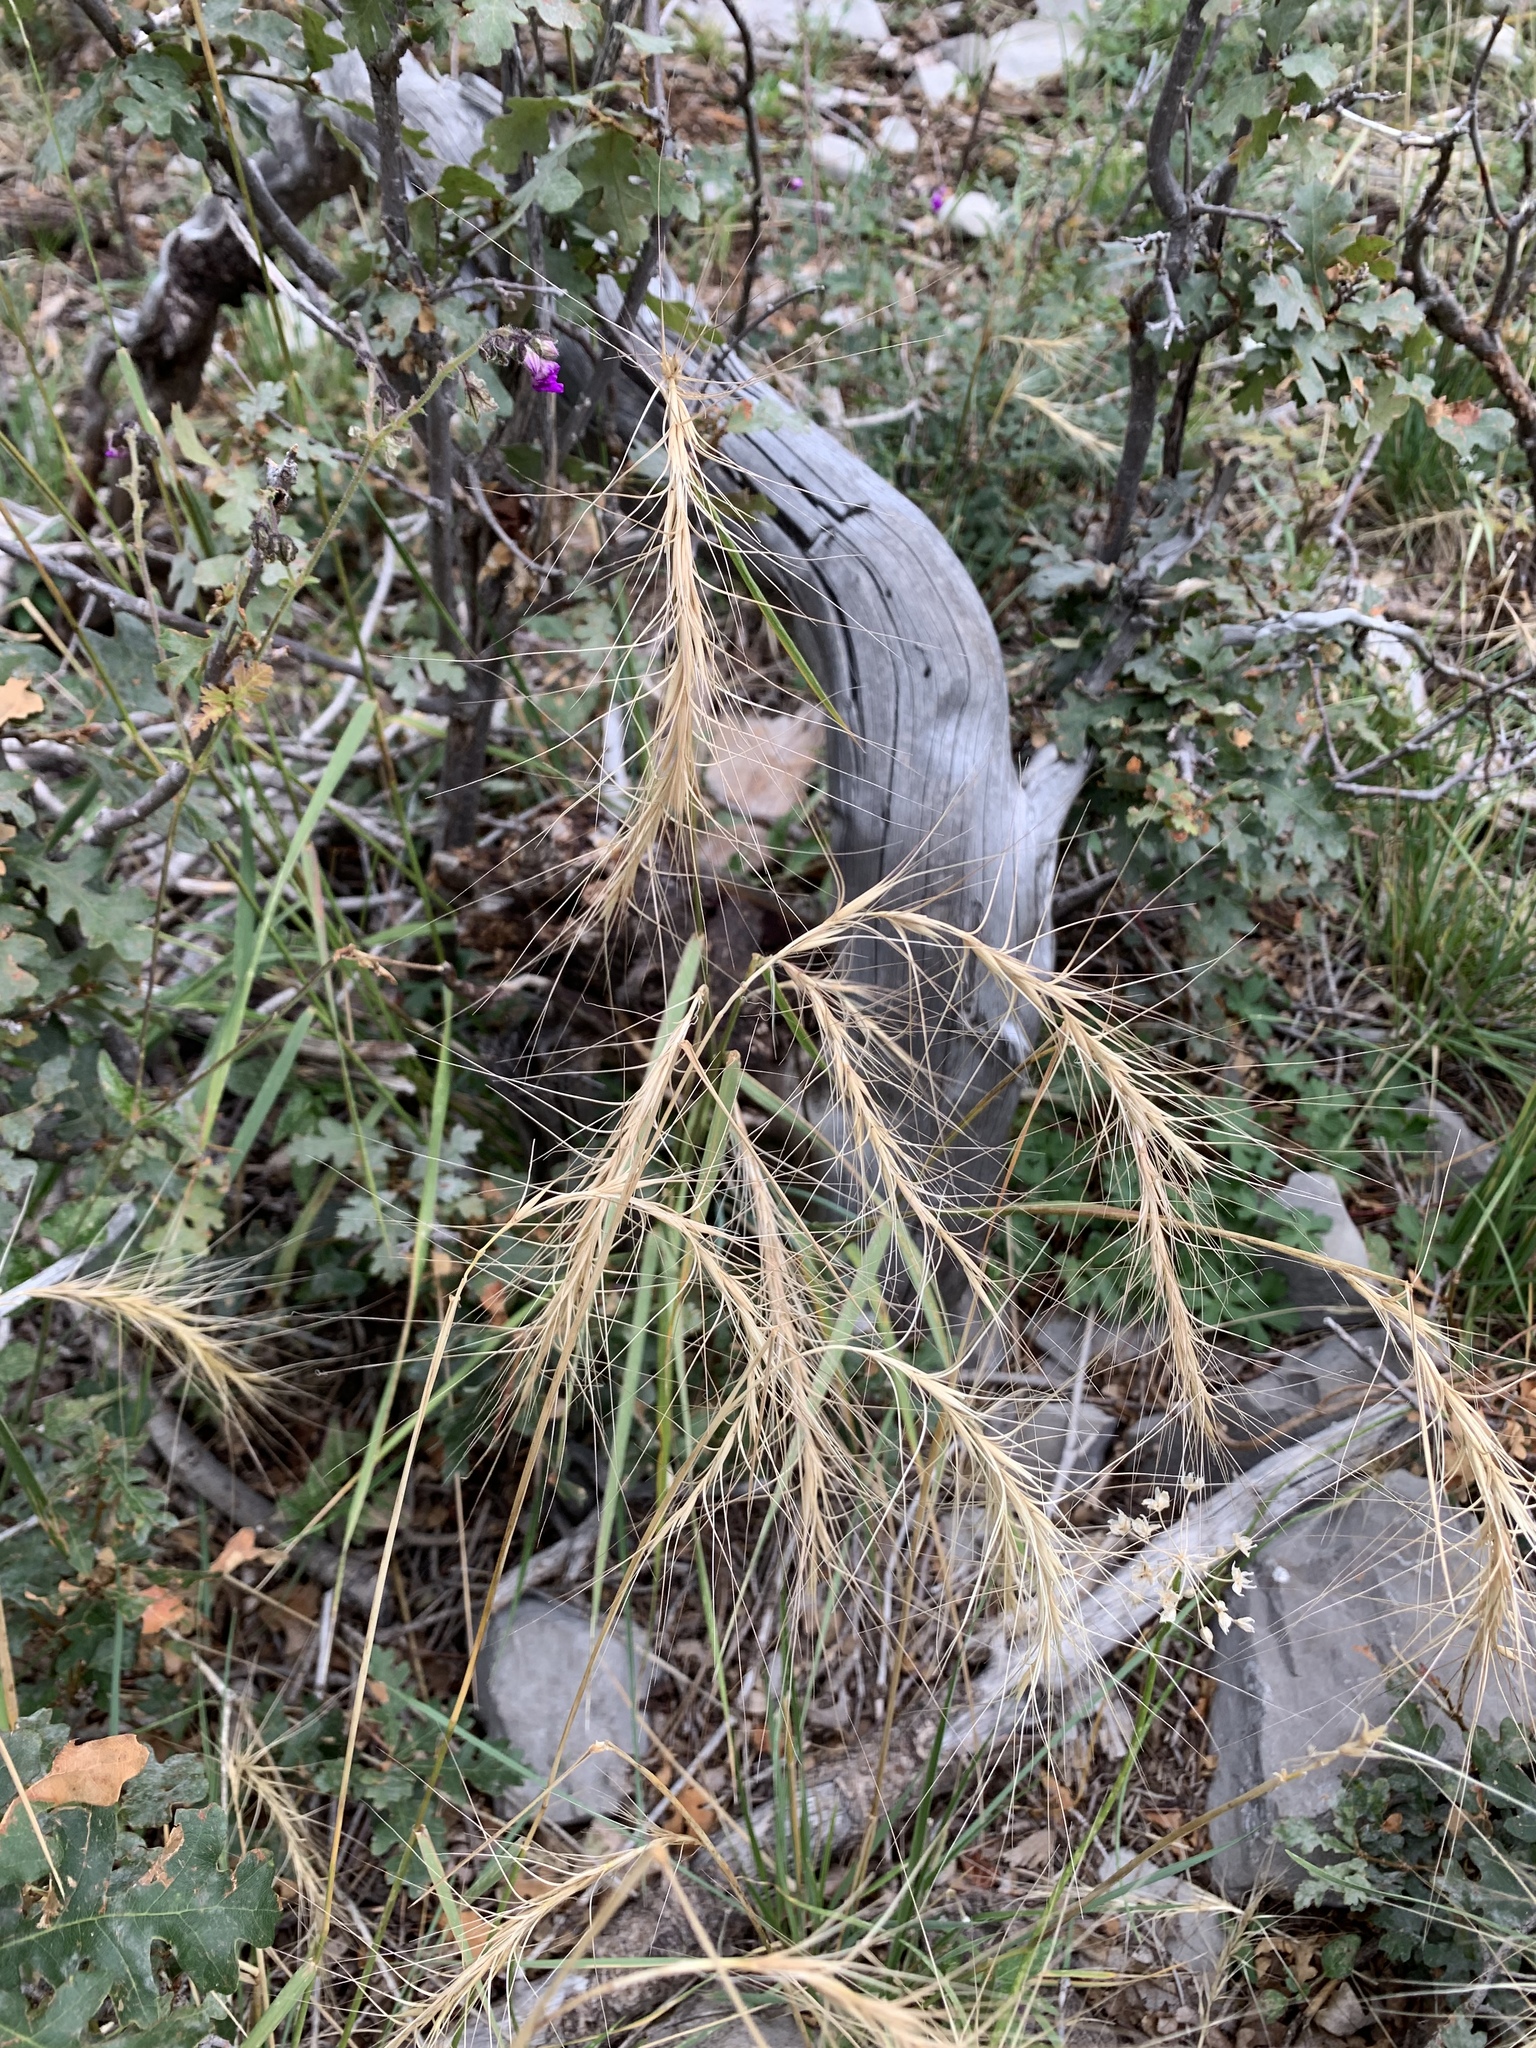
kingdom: Plantae
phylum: Tracheophyta
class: Liliopsida
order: Poales
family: Poaceae
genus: Elymus
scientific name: Elymus canadensis
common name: Canada wild rye
